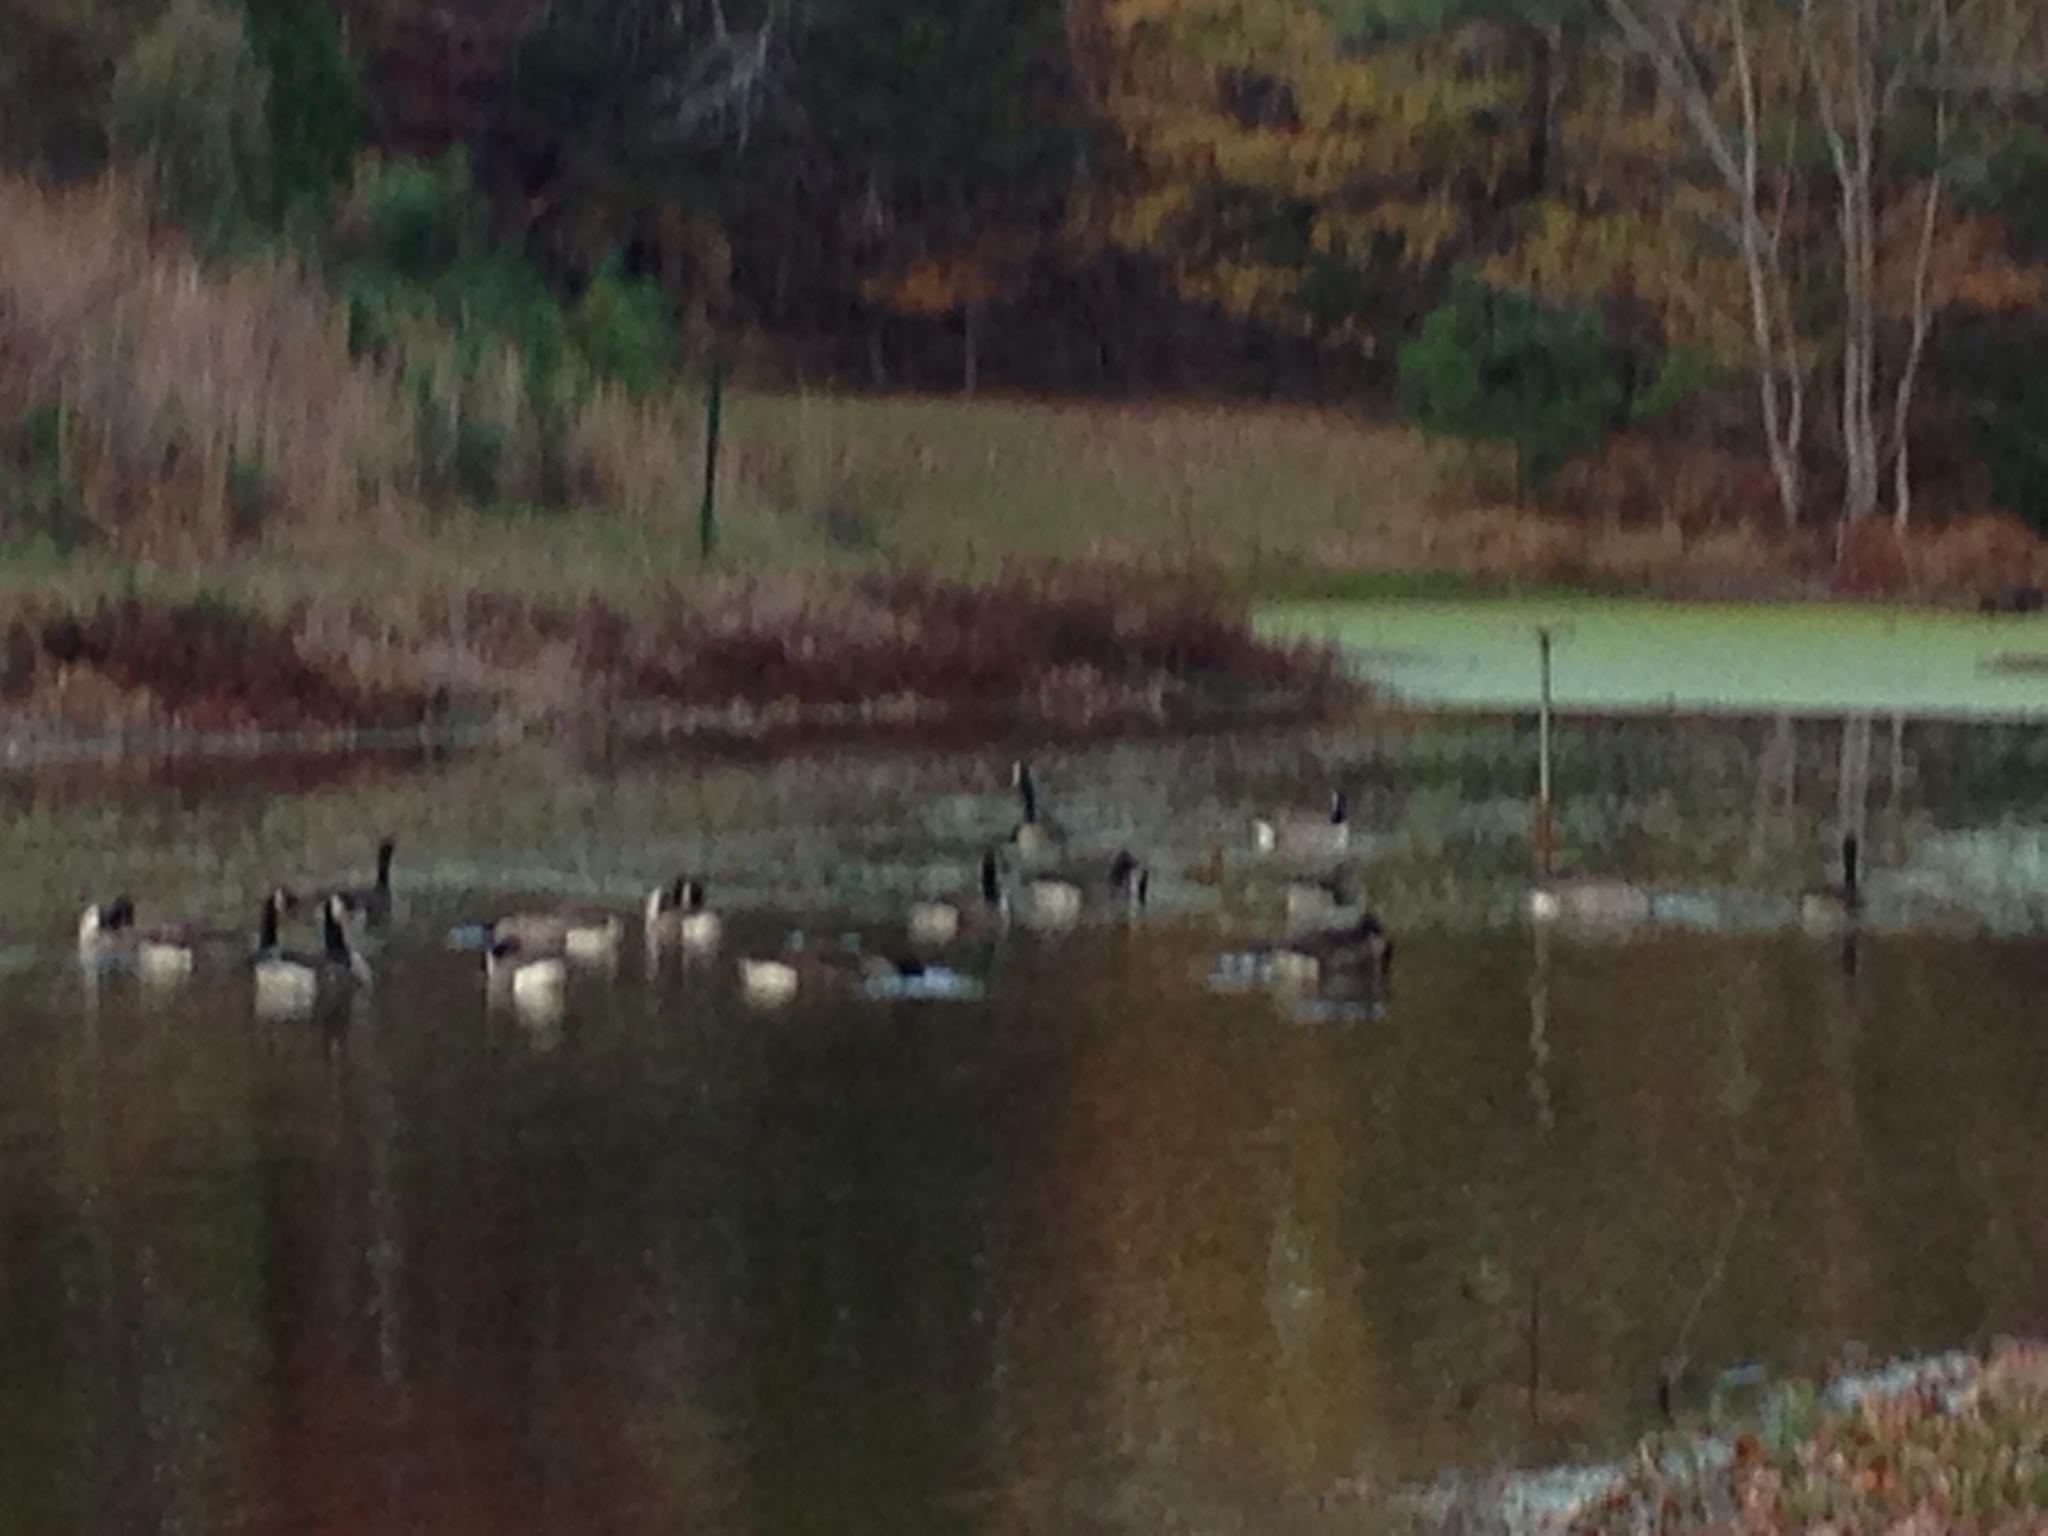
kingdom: Animalia
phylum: Chordata
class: Aves
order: Anseriformes
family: Anatidae
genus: Branta
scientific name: Branta canadensis
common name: Canada goose
